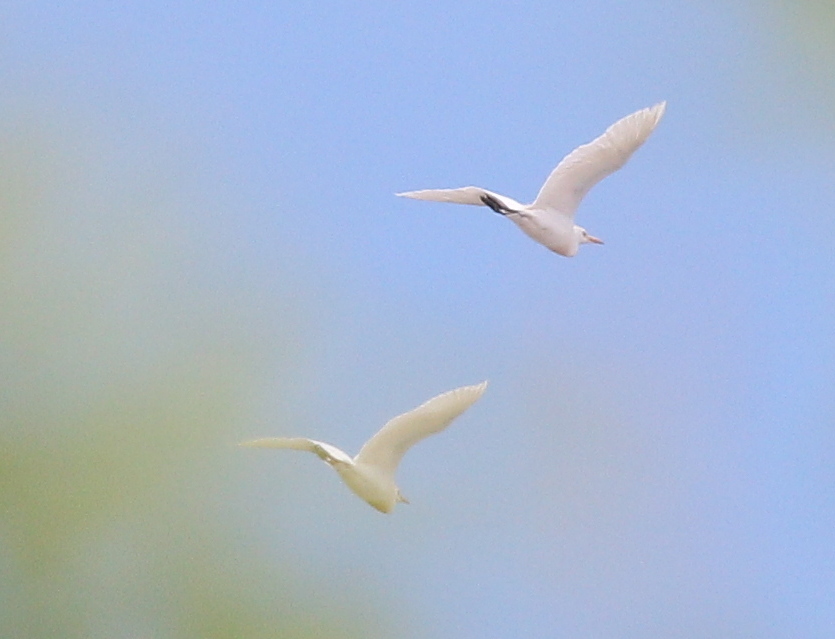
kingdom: Animalia
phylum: Chordata
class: Aves
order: Pelecaniformes
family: Ardeidae
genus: Bubulcus
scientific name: Bubulcus ibis
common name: Cattle egret
